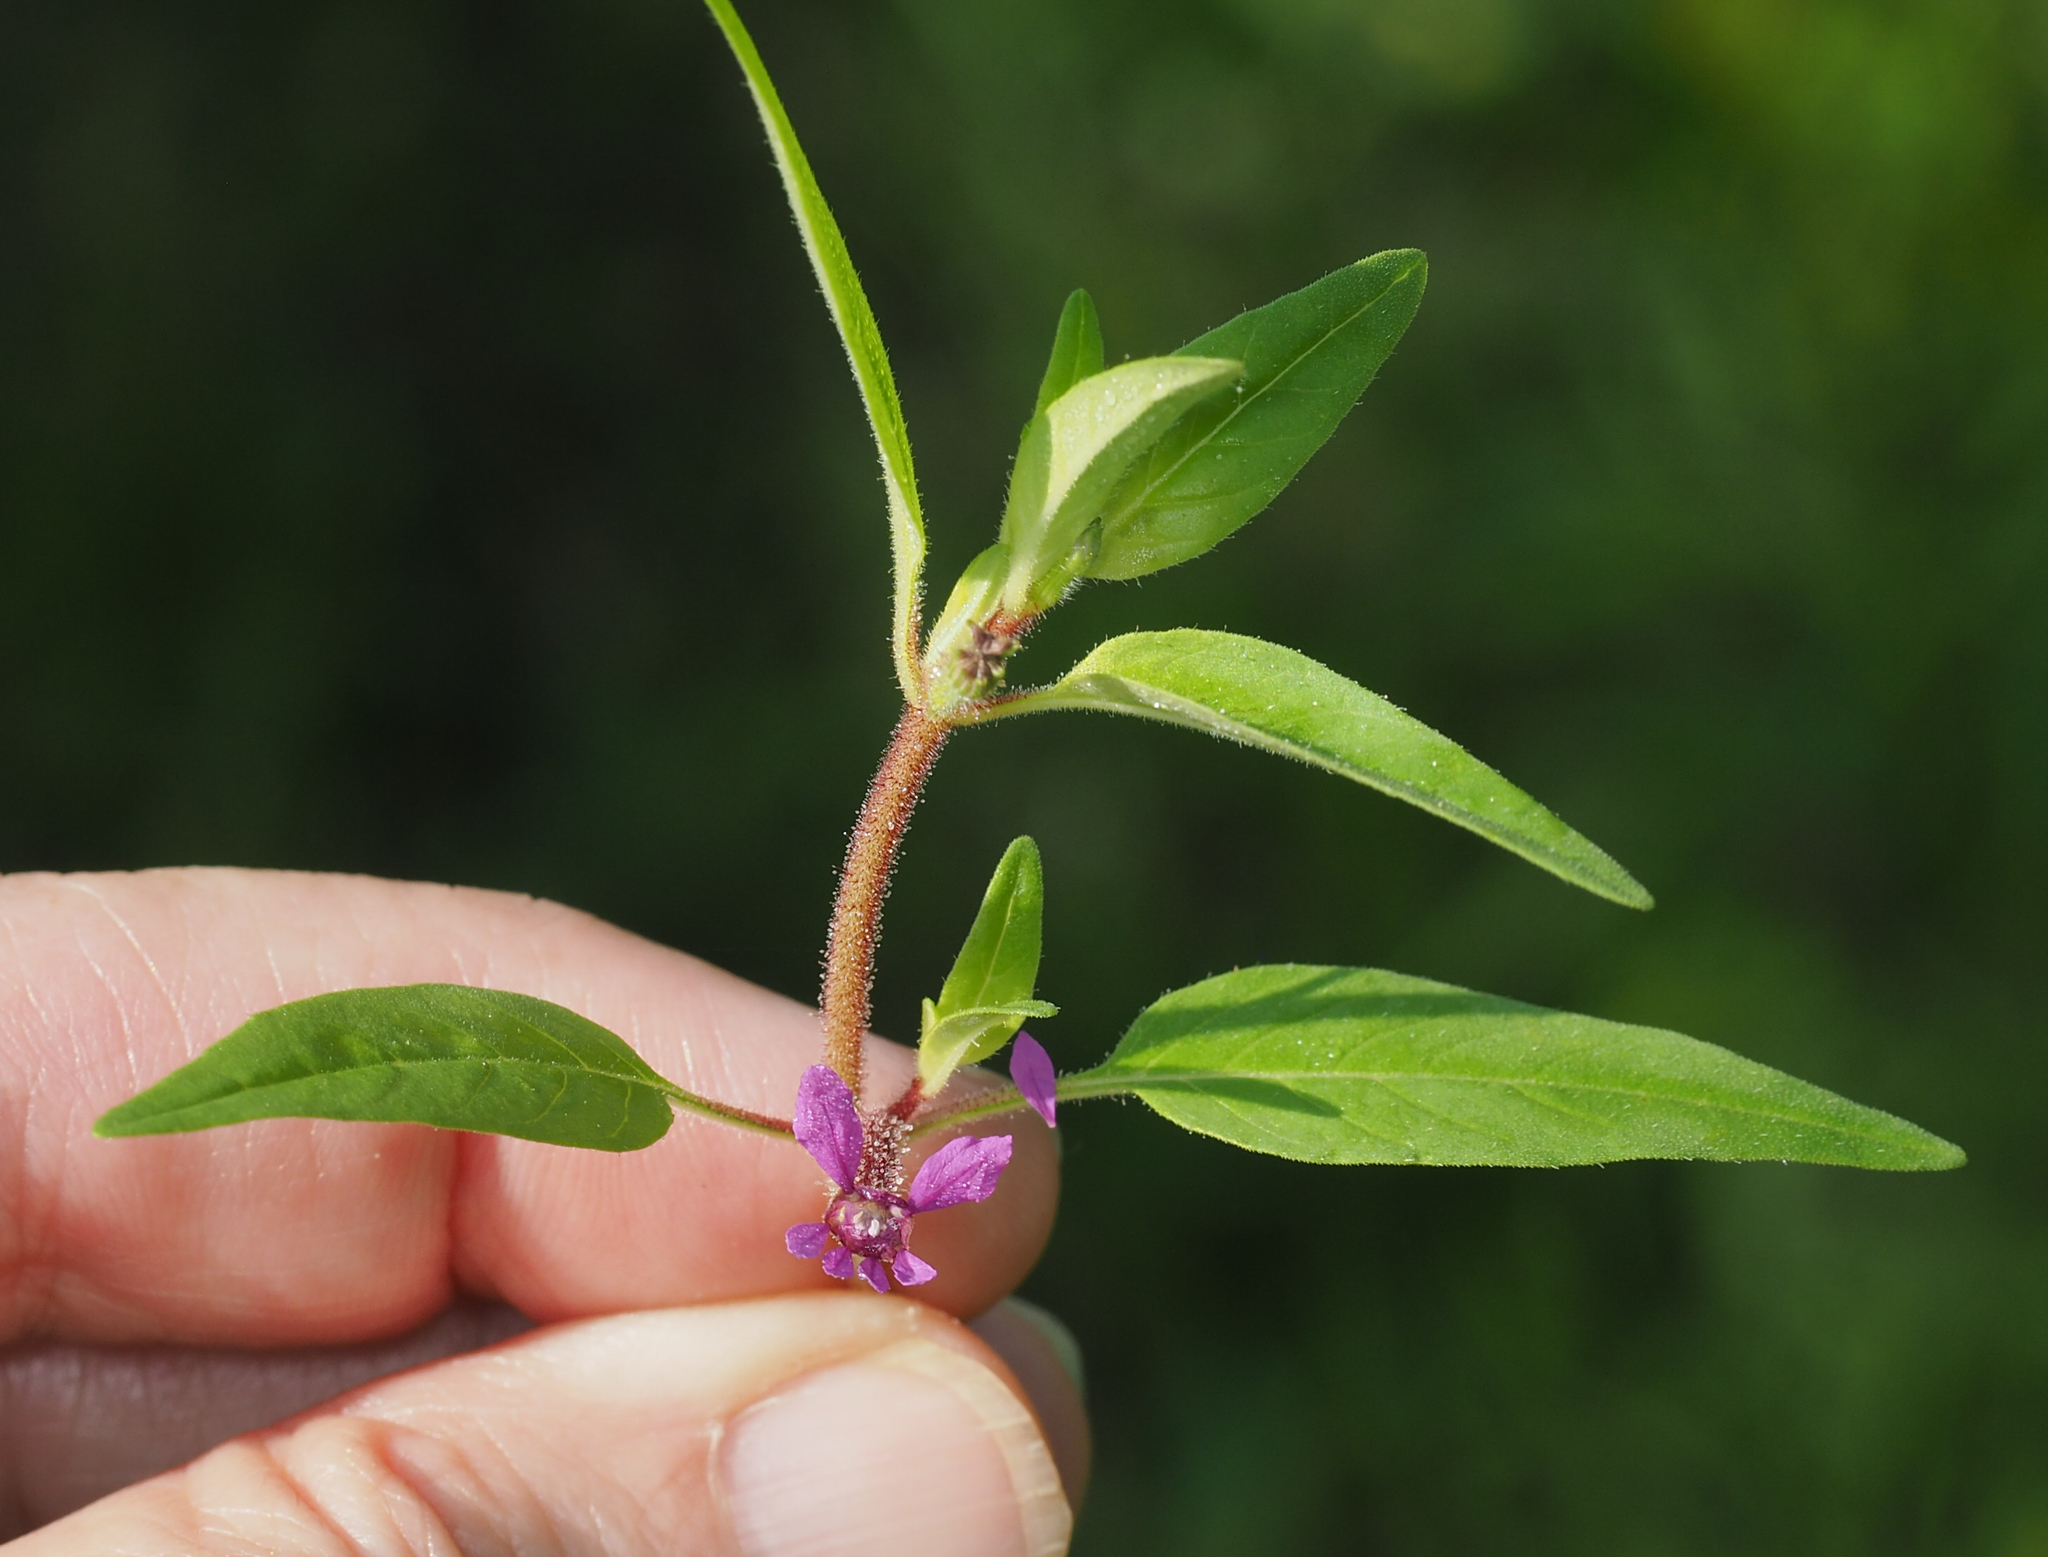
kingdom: Plantae
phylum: Tracheophyta
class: Magnoliopsida
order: Myrtales
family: Lythraceae
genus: Cuphea
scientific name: Cuphea viscosissima
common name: Clammy cuphea
